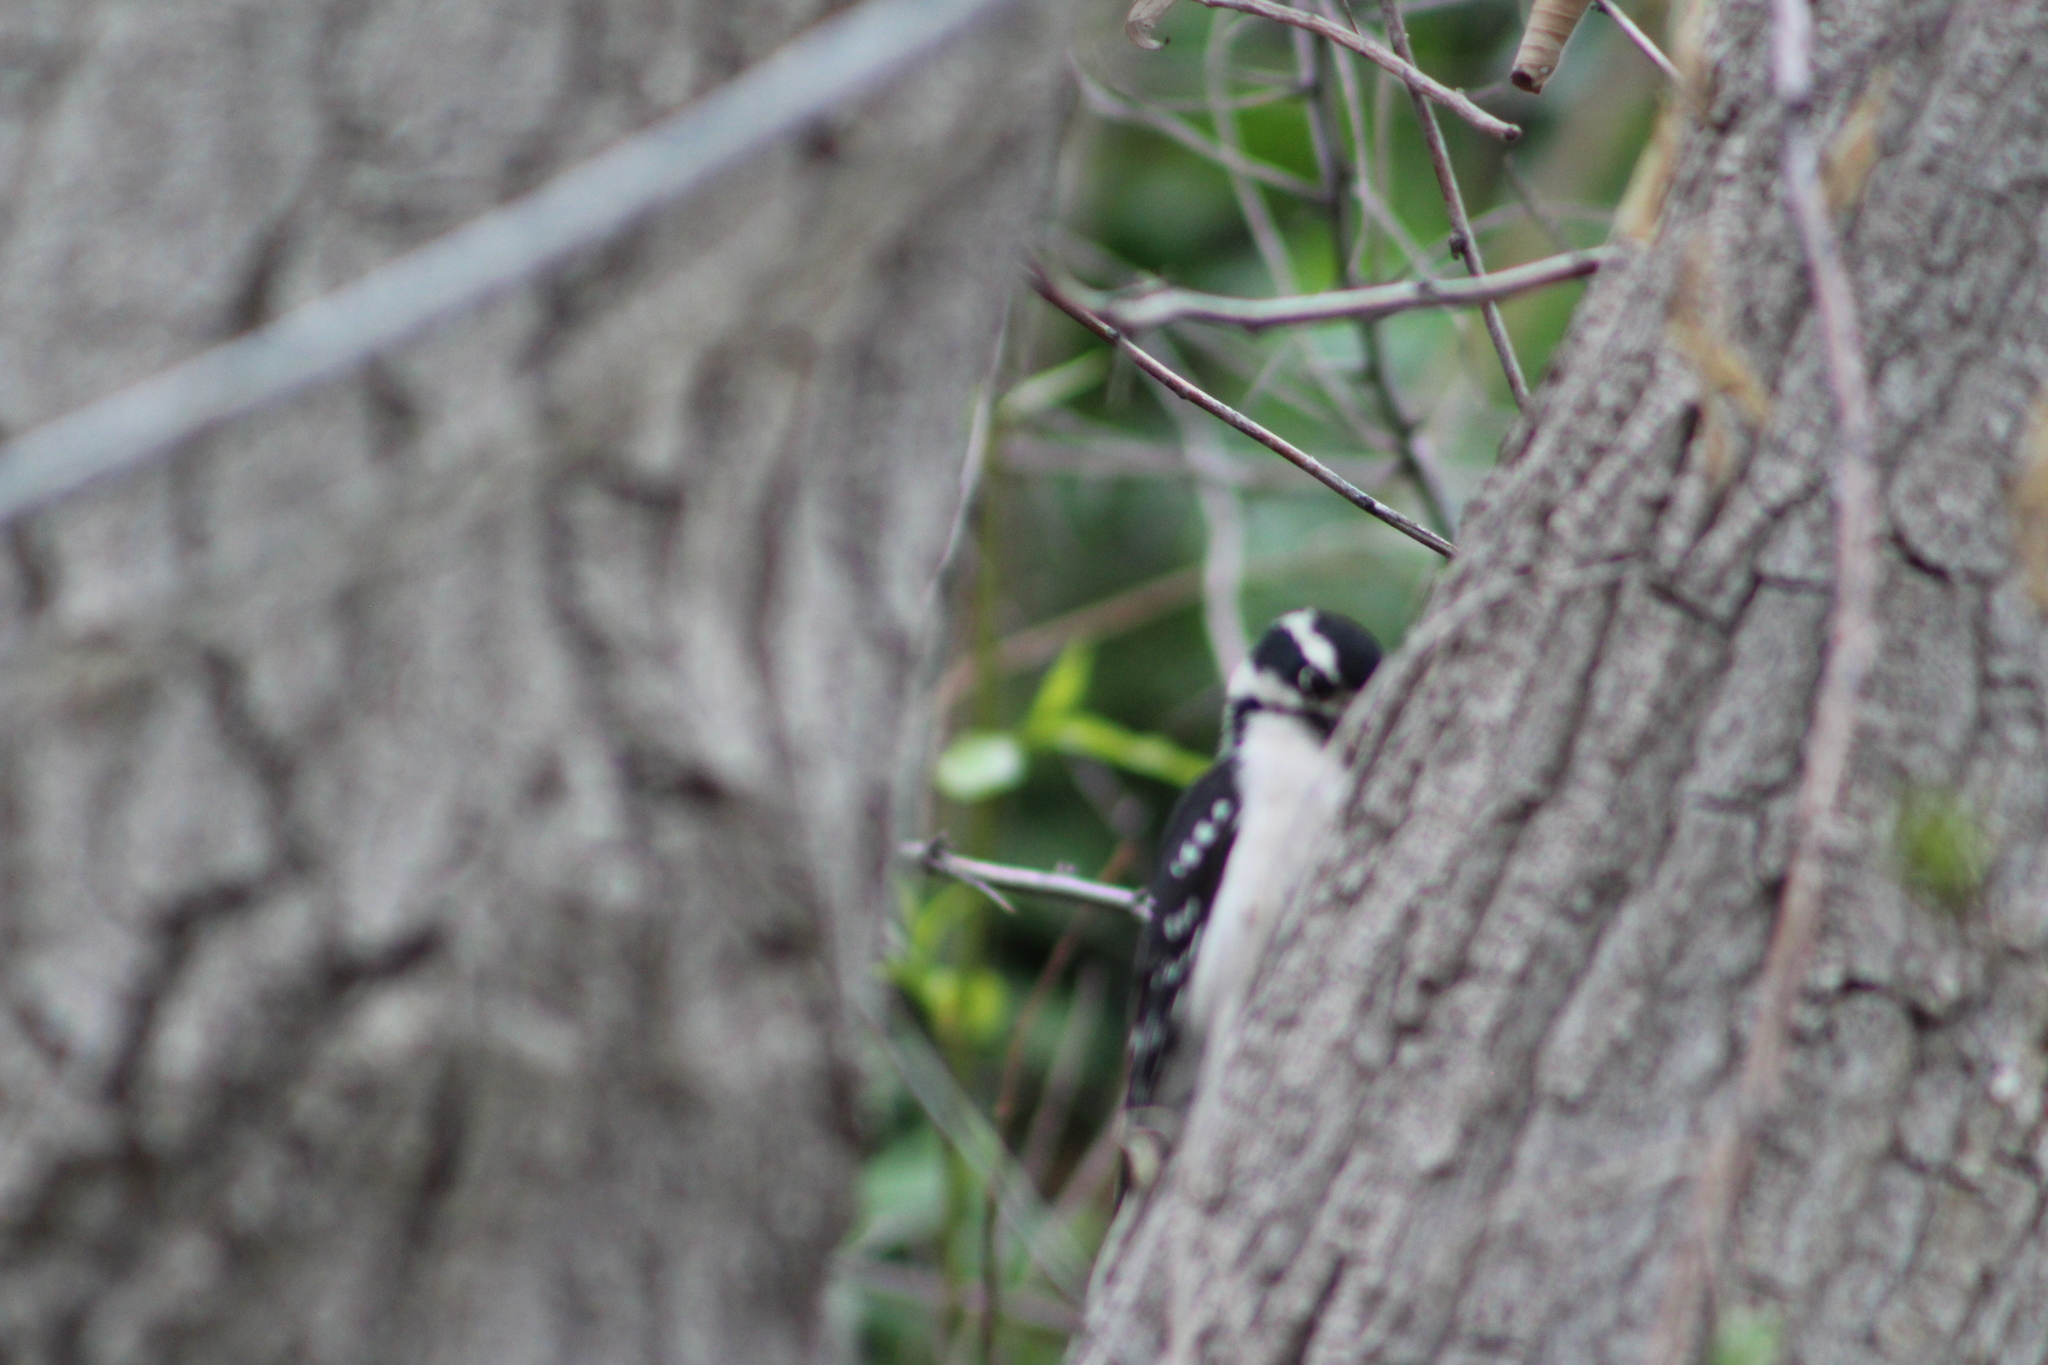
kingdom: Animalia
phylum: Chordata
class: Aves
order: Piciformes
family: Picidae
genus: Dryobates
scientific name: Dryobates pubescens
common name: Downy woodpecker
